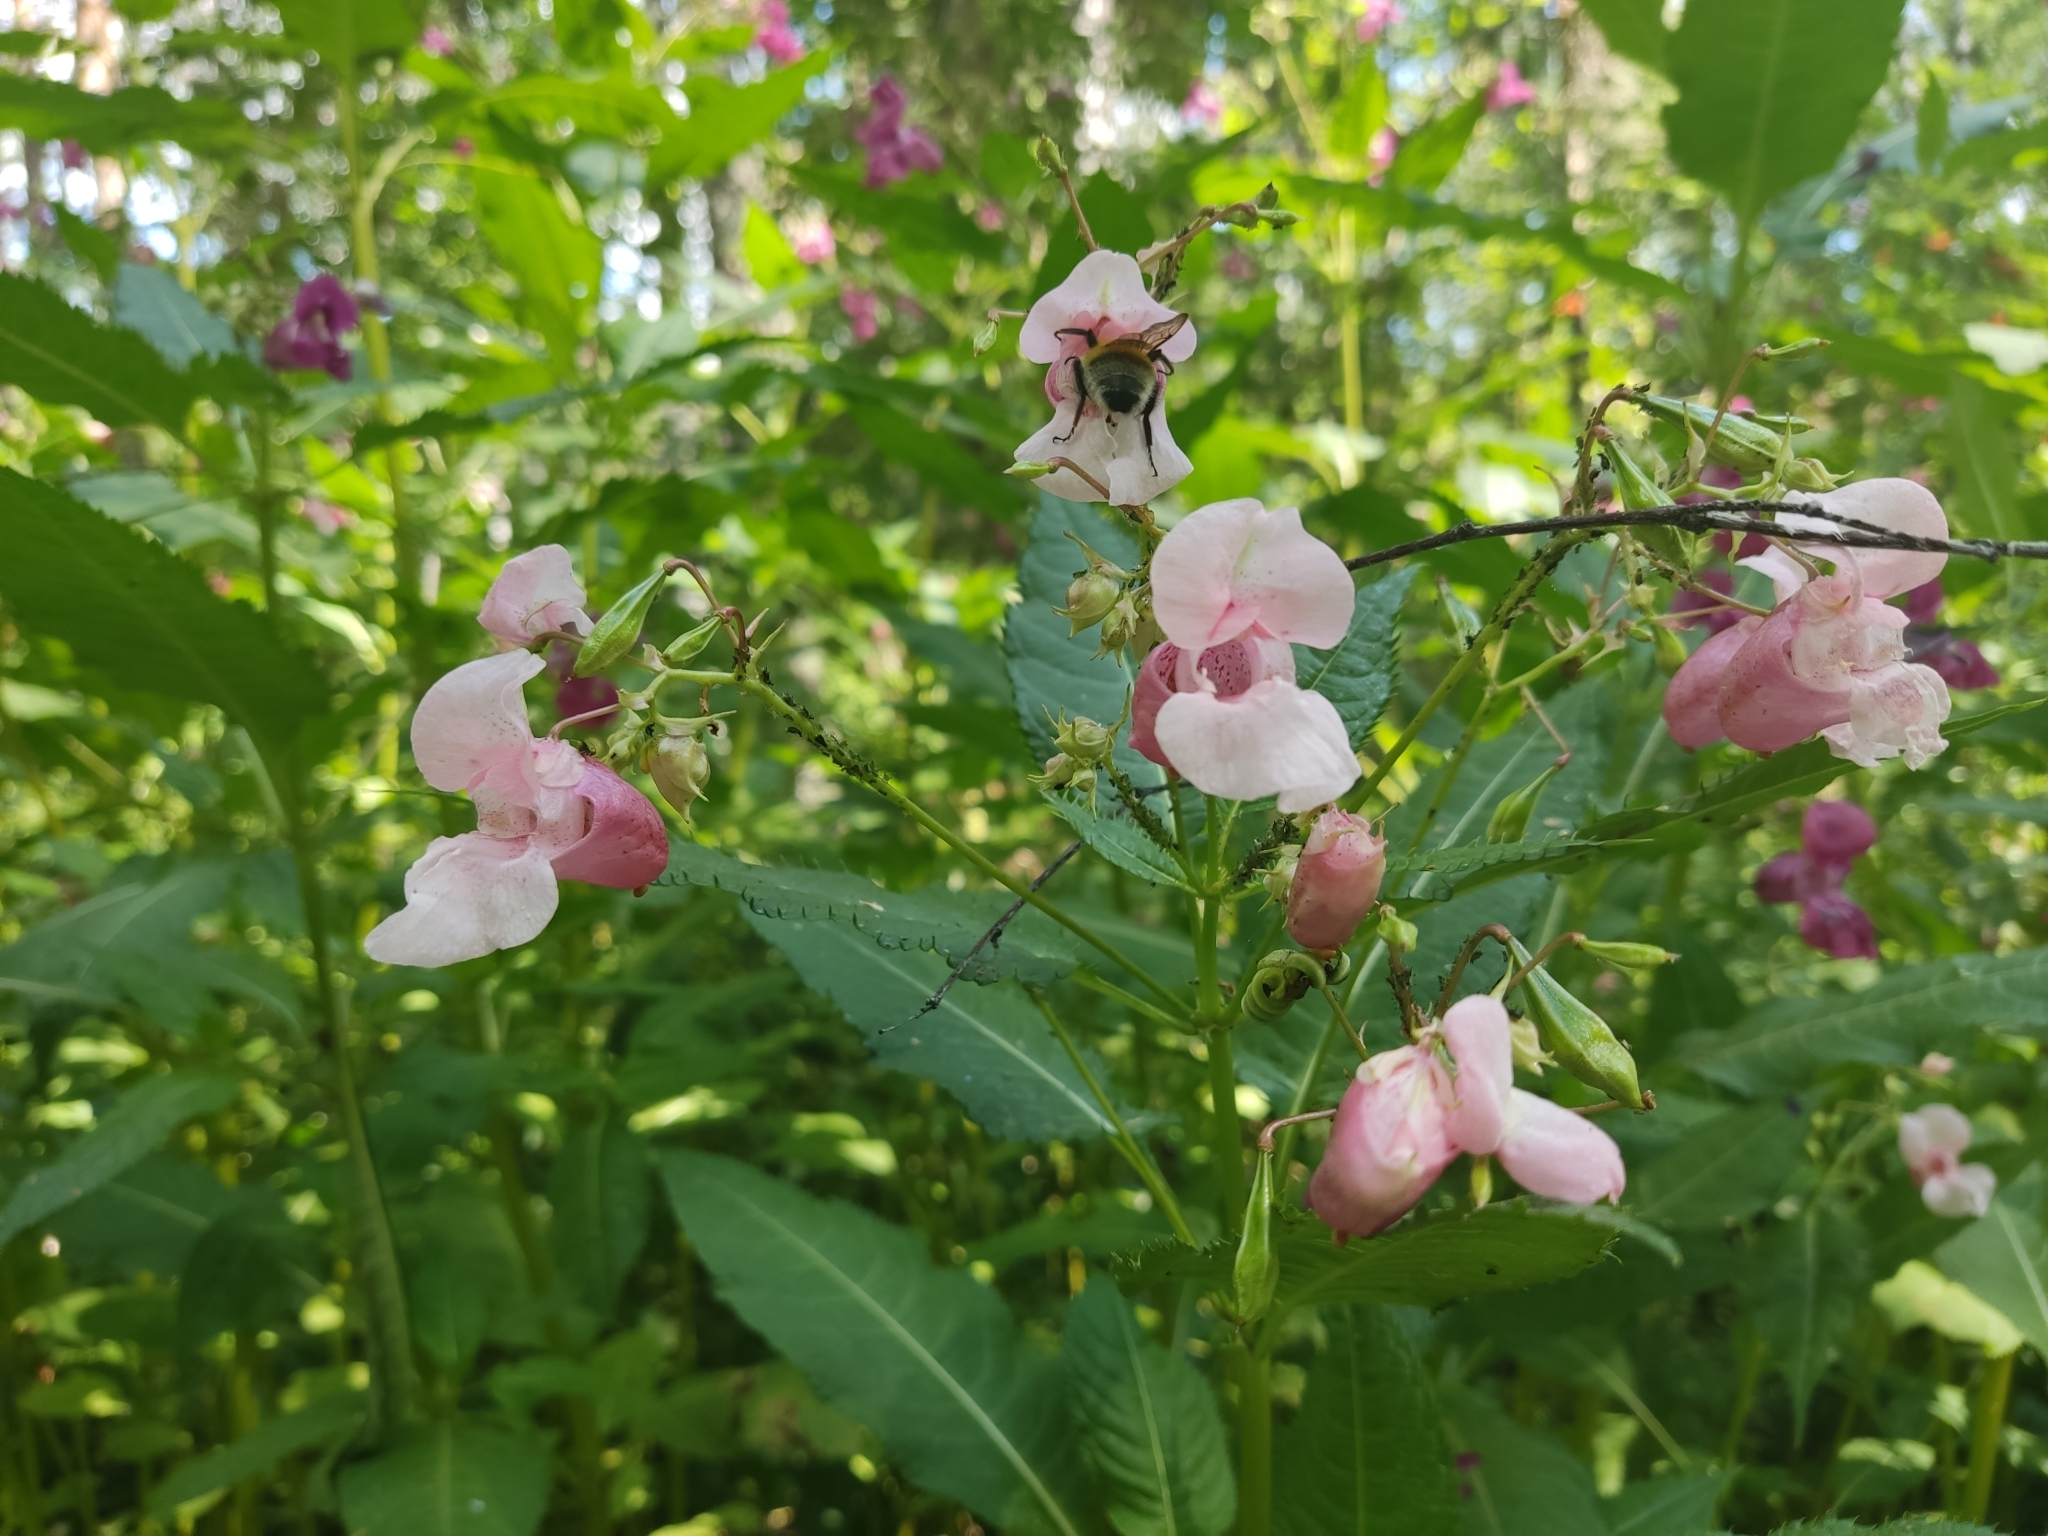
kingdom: Plantae
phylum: Tracheophyta
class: Magnoliopsida
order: Ericales
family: Balsaminaceae
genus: Impatiens
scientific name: Impatiens glandulifera
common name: Himalayan balsam
